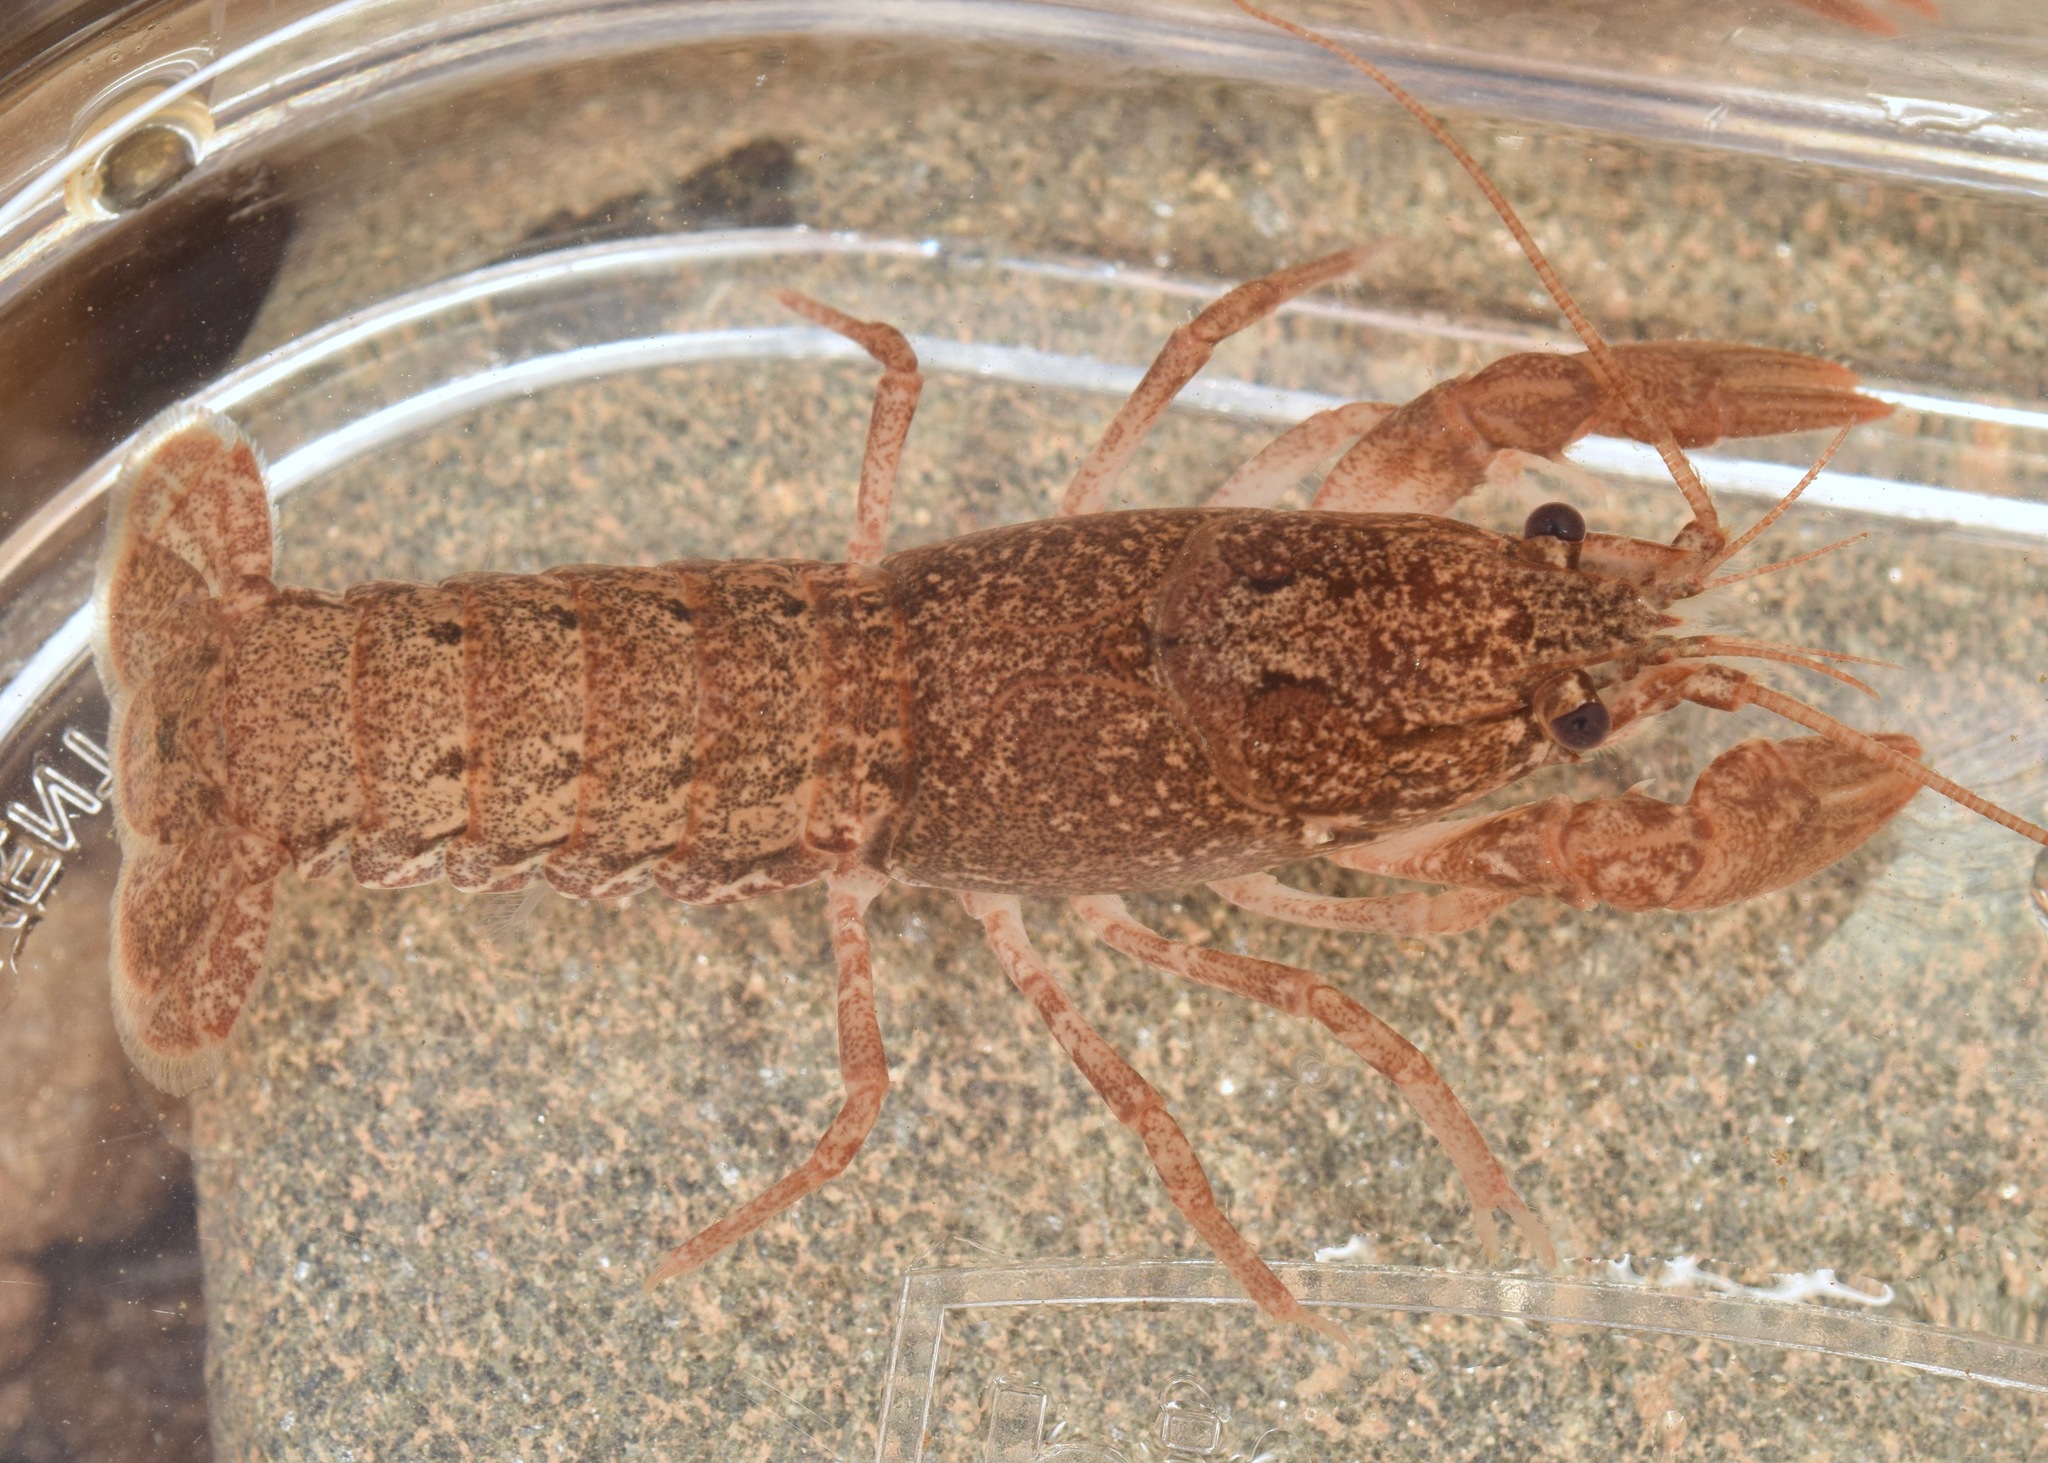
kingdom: Animalia
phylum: Arthropoda
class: Malacostraca
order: Decapoda
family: Cambaridae
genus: Cambarus
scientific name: Cambarus latimanus
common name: Variable crayfish
